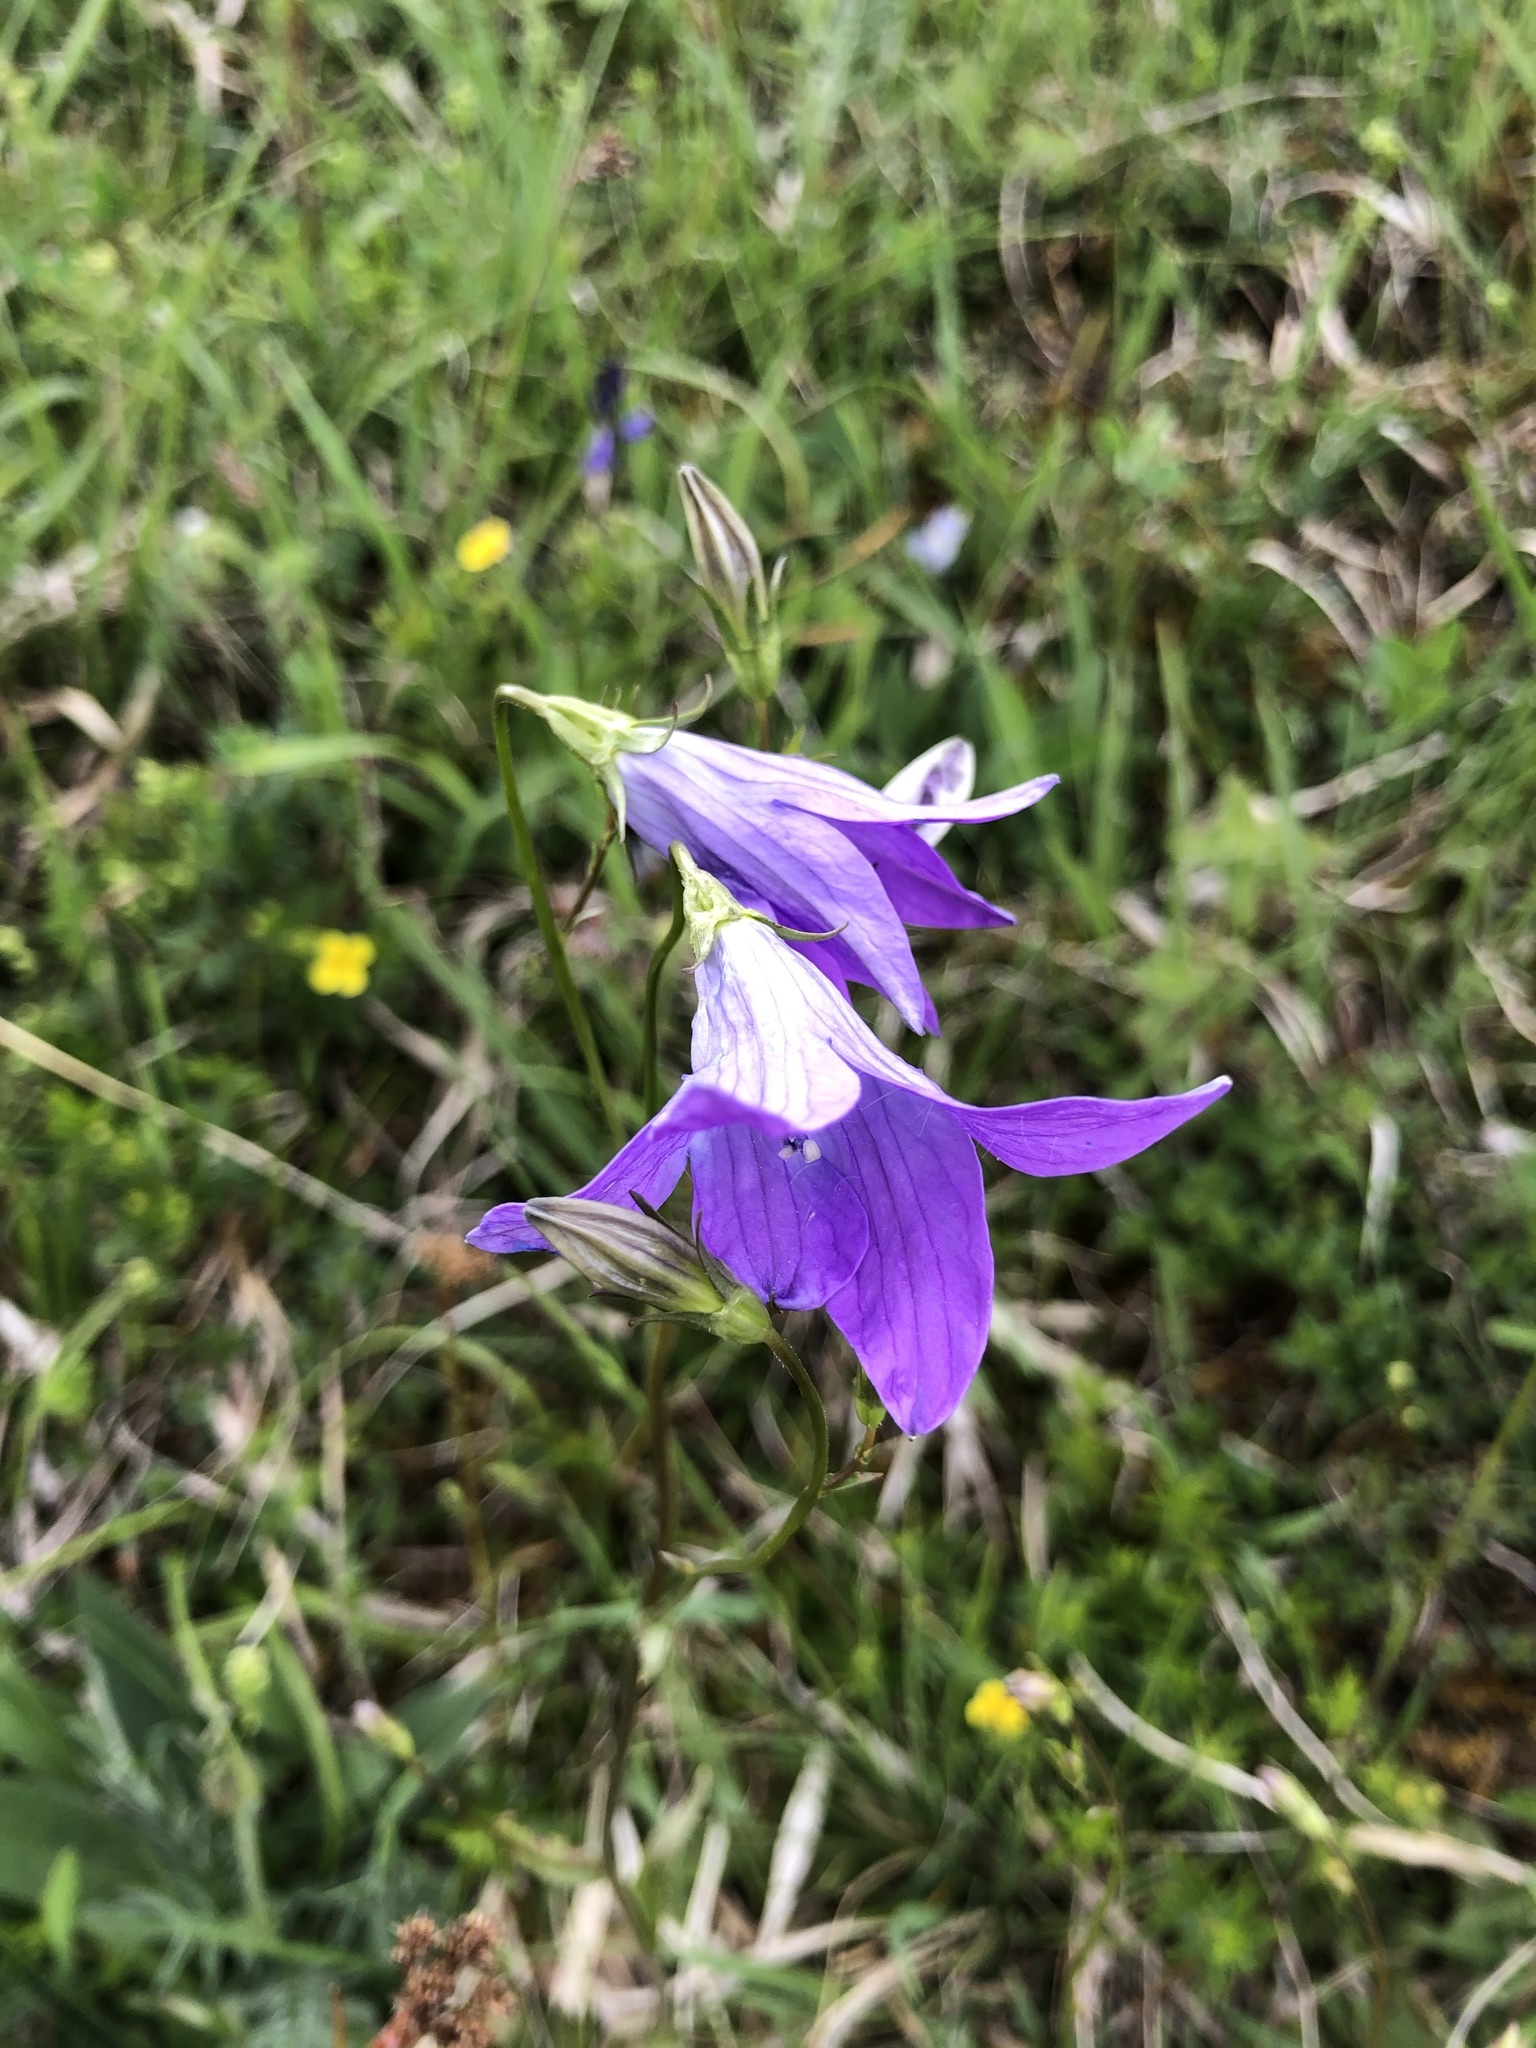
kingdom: Plantae
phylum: Tracheophyta
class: Magnoliopsida
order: Asterales
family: Campanulaceae
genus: Campanula
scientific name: Campanula patula
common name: Spreading bellflower
